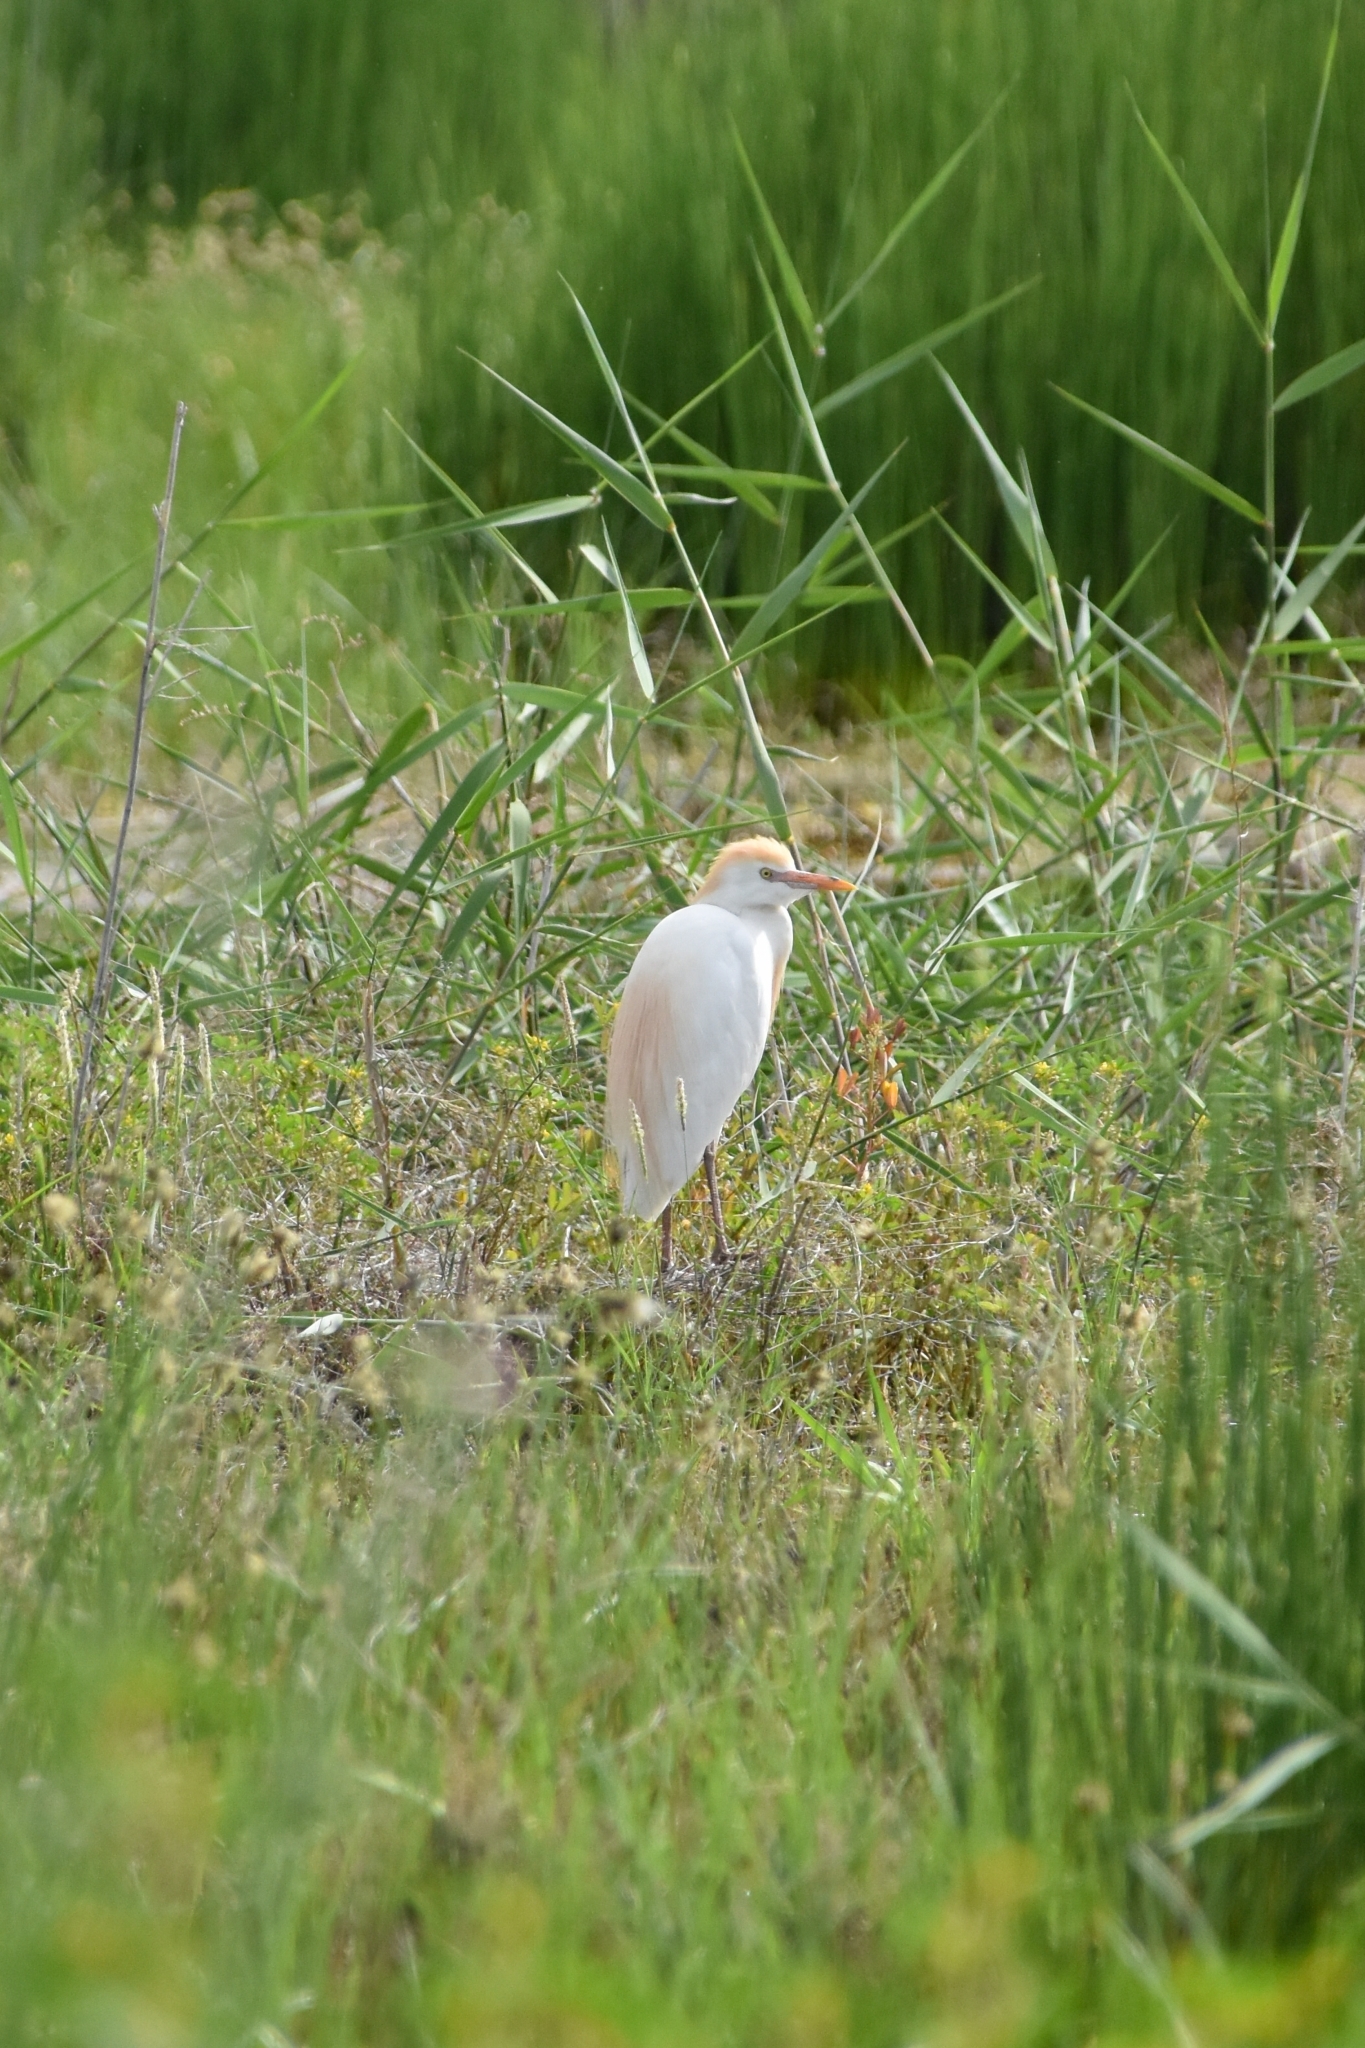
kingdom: Animalia
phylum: Chordata
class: Aves
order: Pelecaniformes
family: Ardeidae
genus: Bubulcus
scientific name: Bubulcus ibis
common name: Cattle egret
